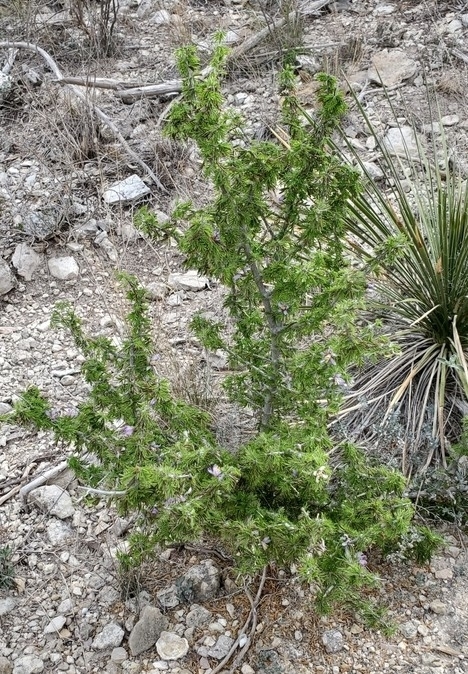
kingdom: Plantae
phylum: Tracheophyta
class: Magnoliopsida
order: Zygophyllales
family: Zygophyllaceae
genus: Porlieria
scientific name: Porlieria angustifolia
